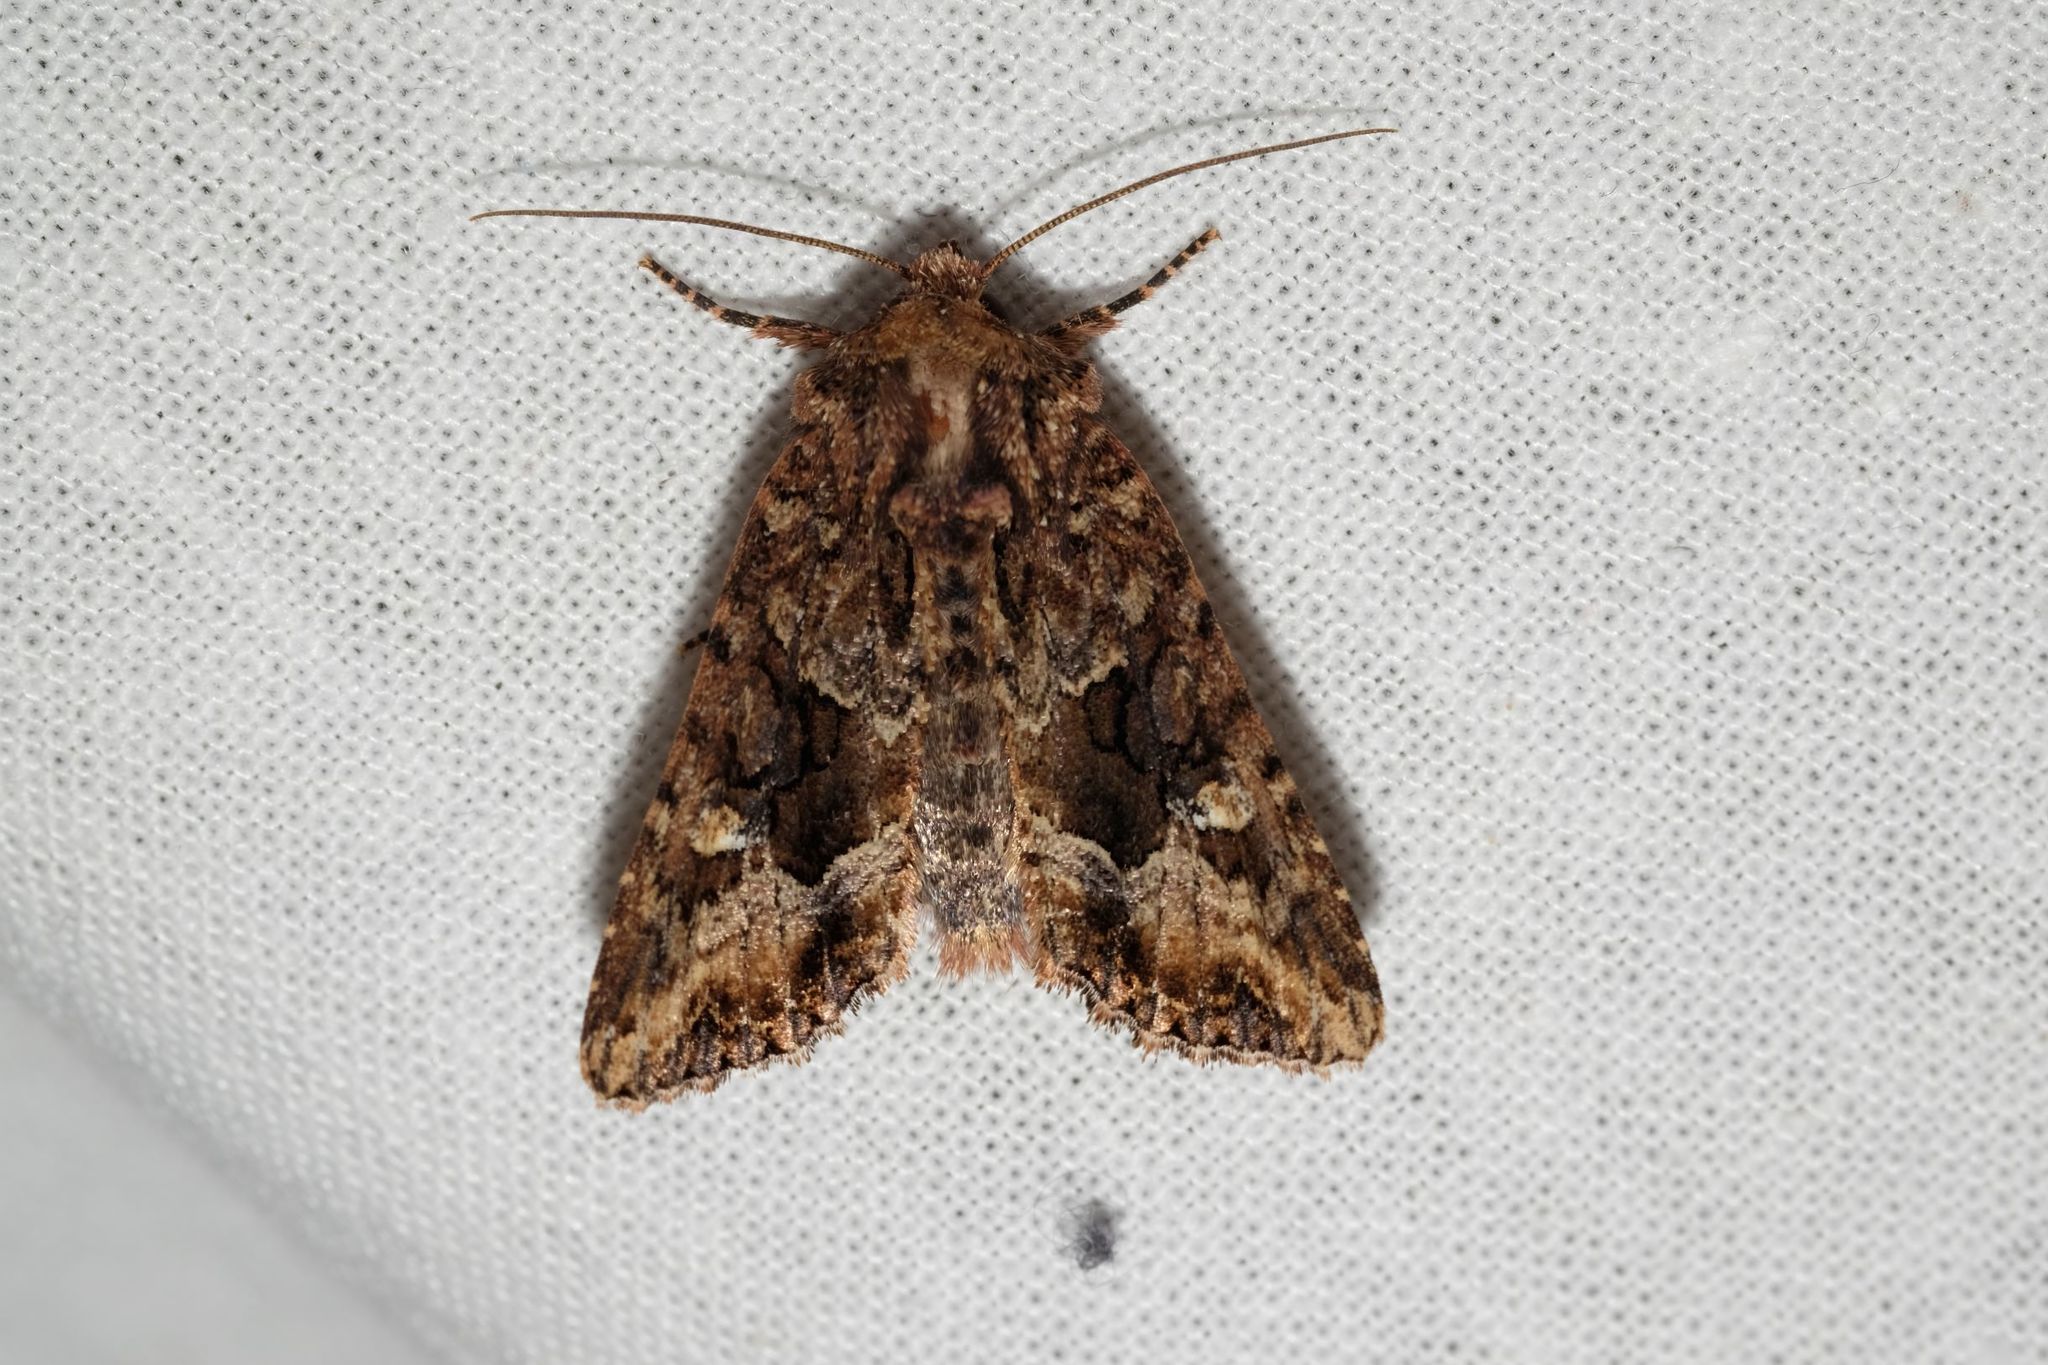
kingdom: Animalia
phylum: Arthropoda
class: Insecta
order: Lepidoptera
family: Noctuidae
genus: Neumichtis
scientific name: Neumichtis saliaris
